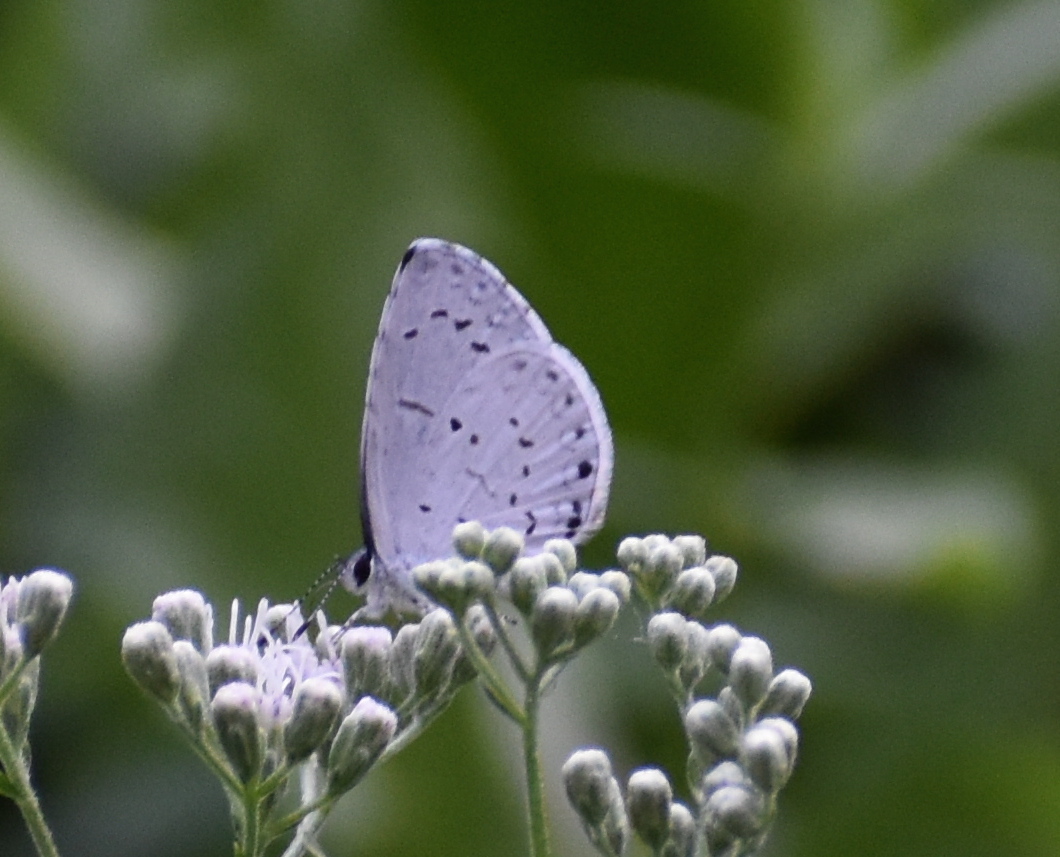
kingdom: Animalia
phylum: Arthropoda
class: Insecta
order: Lepidoptera
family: Lycaenidae
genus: Cyaniris
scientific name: Cyaniris neglecta
